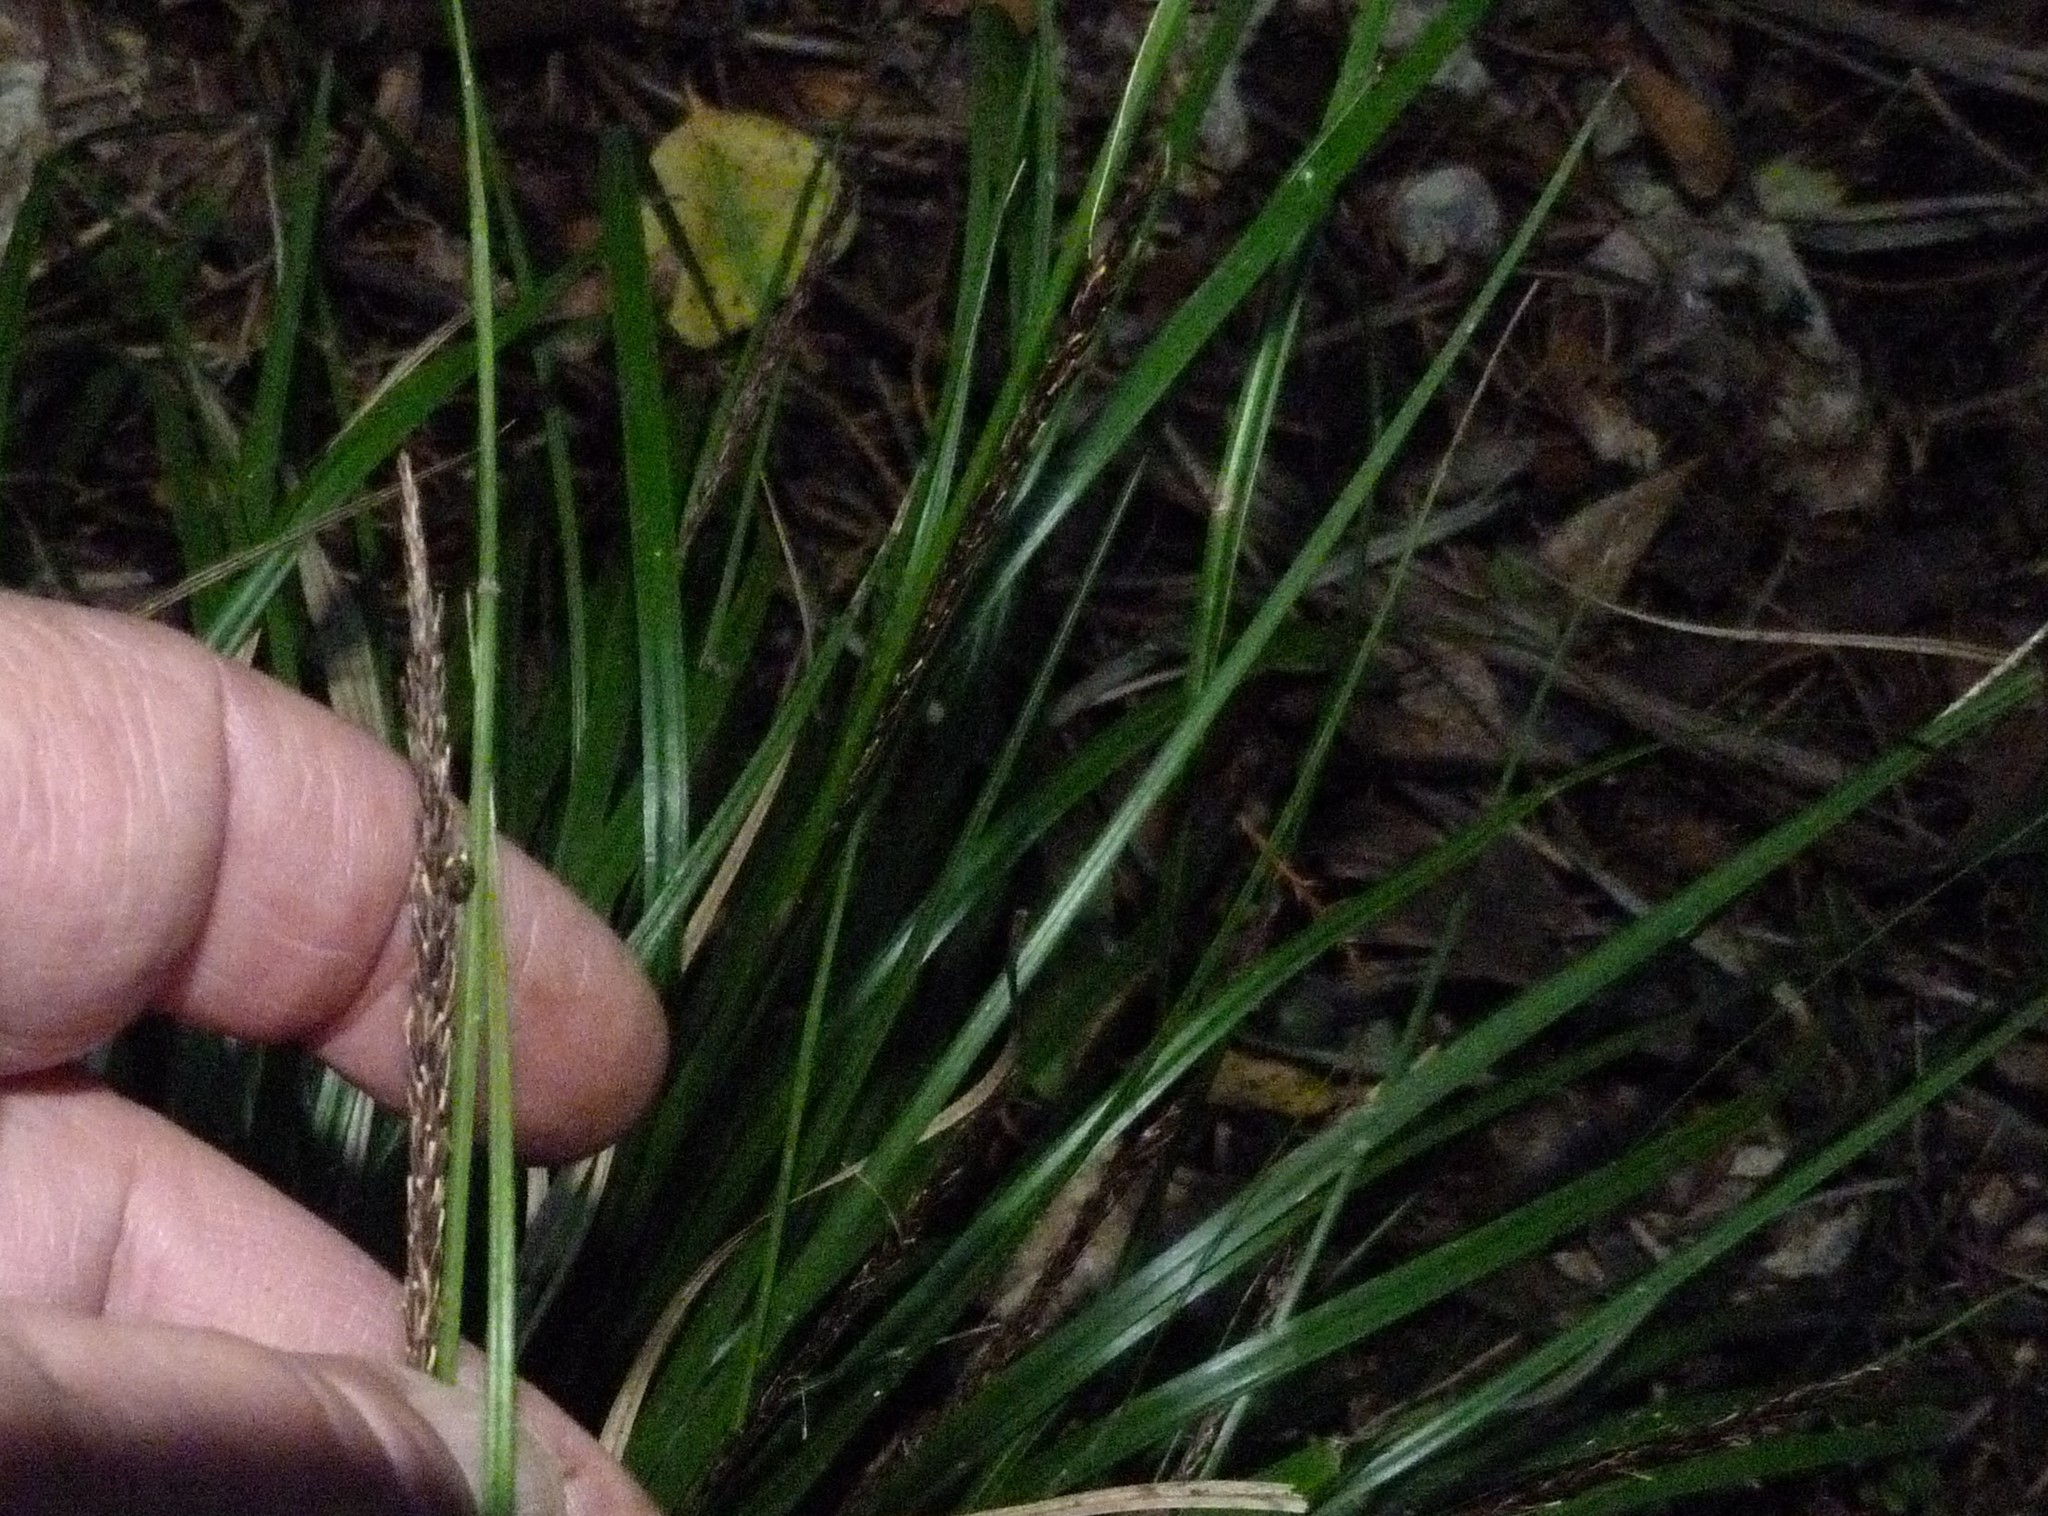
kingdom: Plantae
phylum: Tracheophyta
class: Liliopsida
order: Poales
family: Cyperaceae
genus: Carex
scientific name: Carex uncinata
